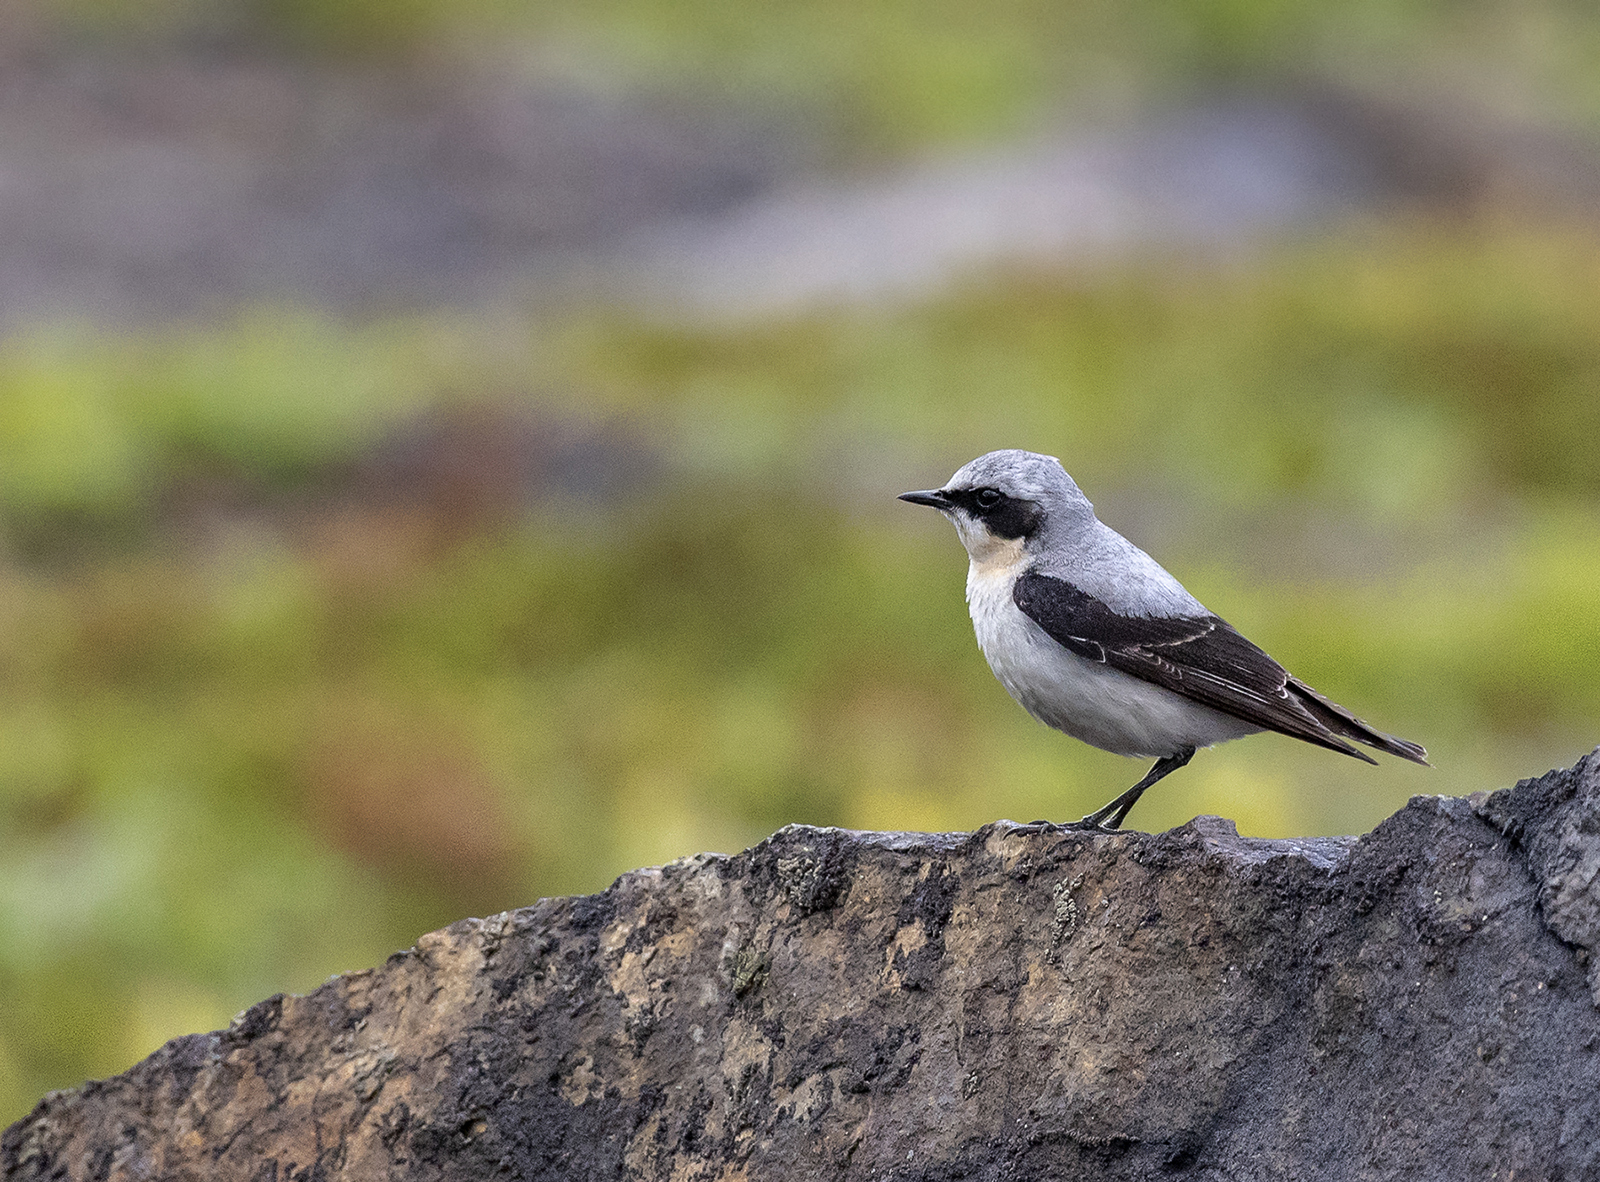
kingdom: Animalia
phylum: Chordata
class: Aves
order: Passeriformes
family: Muscicapidae
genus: Oenanthe
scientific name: Oenanthe oenanthe
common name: Northern wheatear
